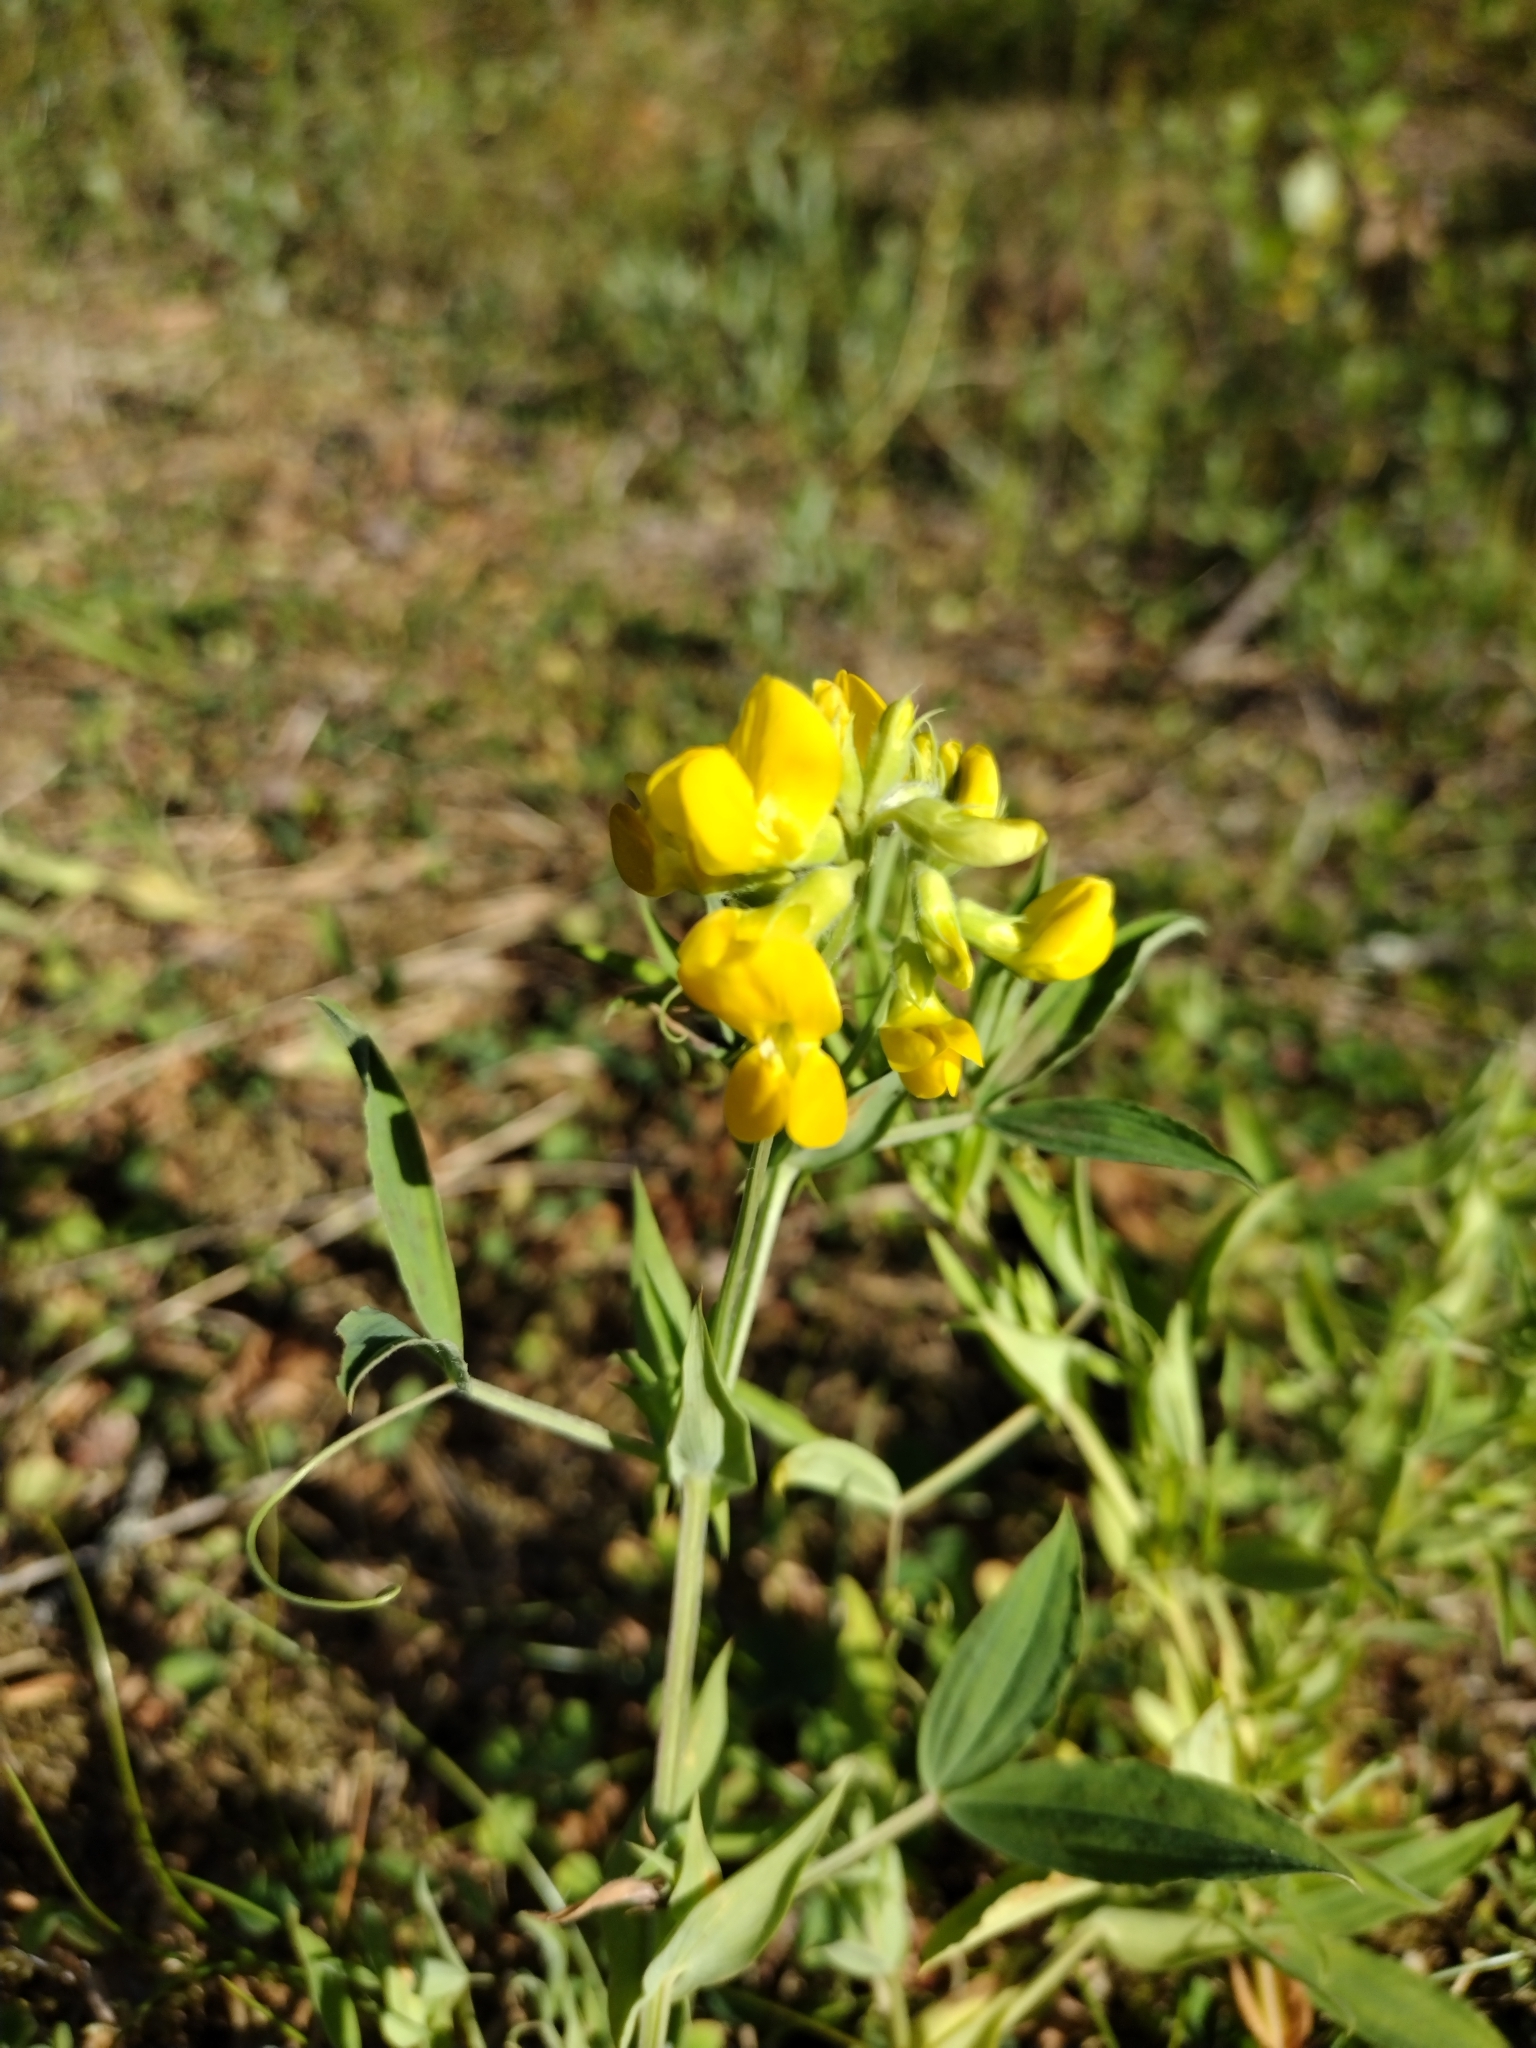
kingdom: Plantae
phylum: Tracheophyta
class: Magnoliopsida
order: Fabales
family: Fabaceae
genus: Lathyrus
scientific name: Lathyrus pratensis
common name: Meadow vetchling
